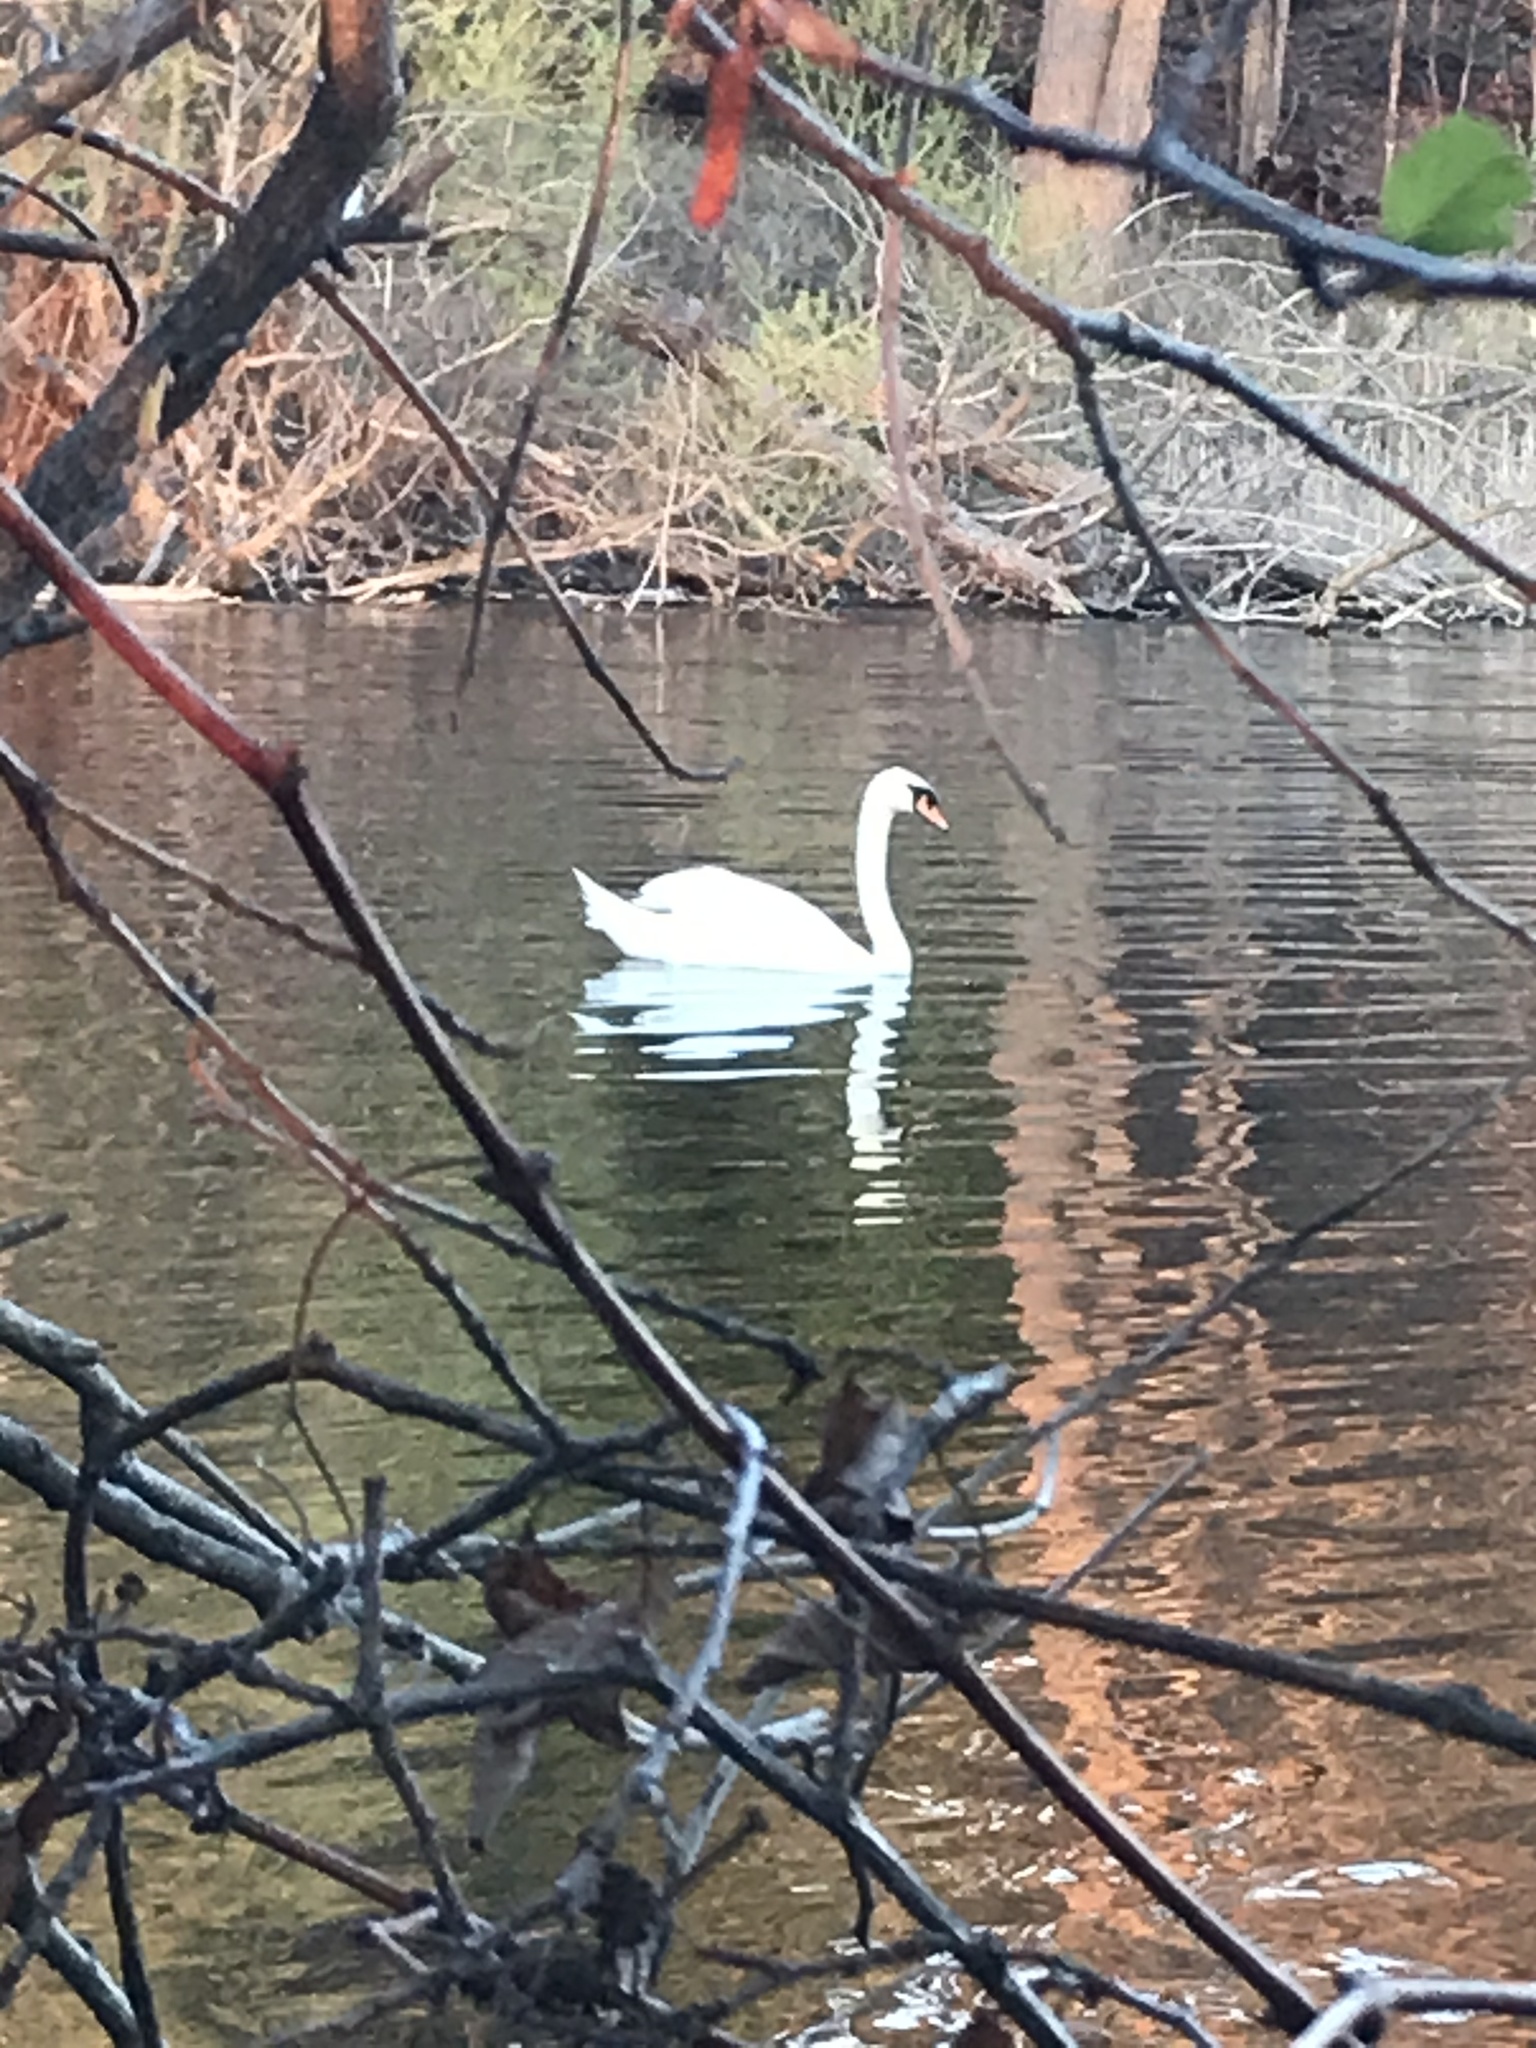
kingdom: Animalia
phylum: Chordata
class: Aves
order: Anseriformes
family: Anatidae
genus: Cygnus
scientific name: Cygnus olor
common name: Mute swan
